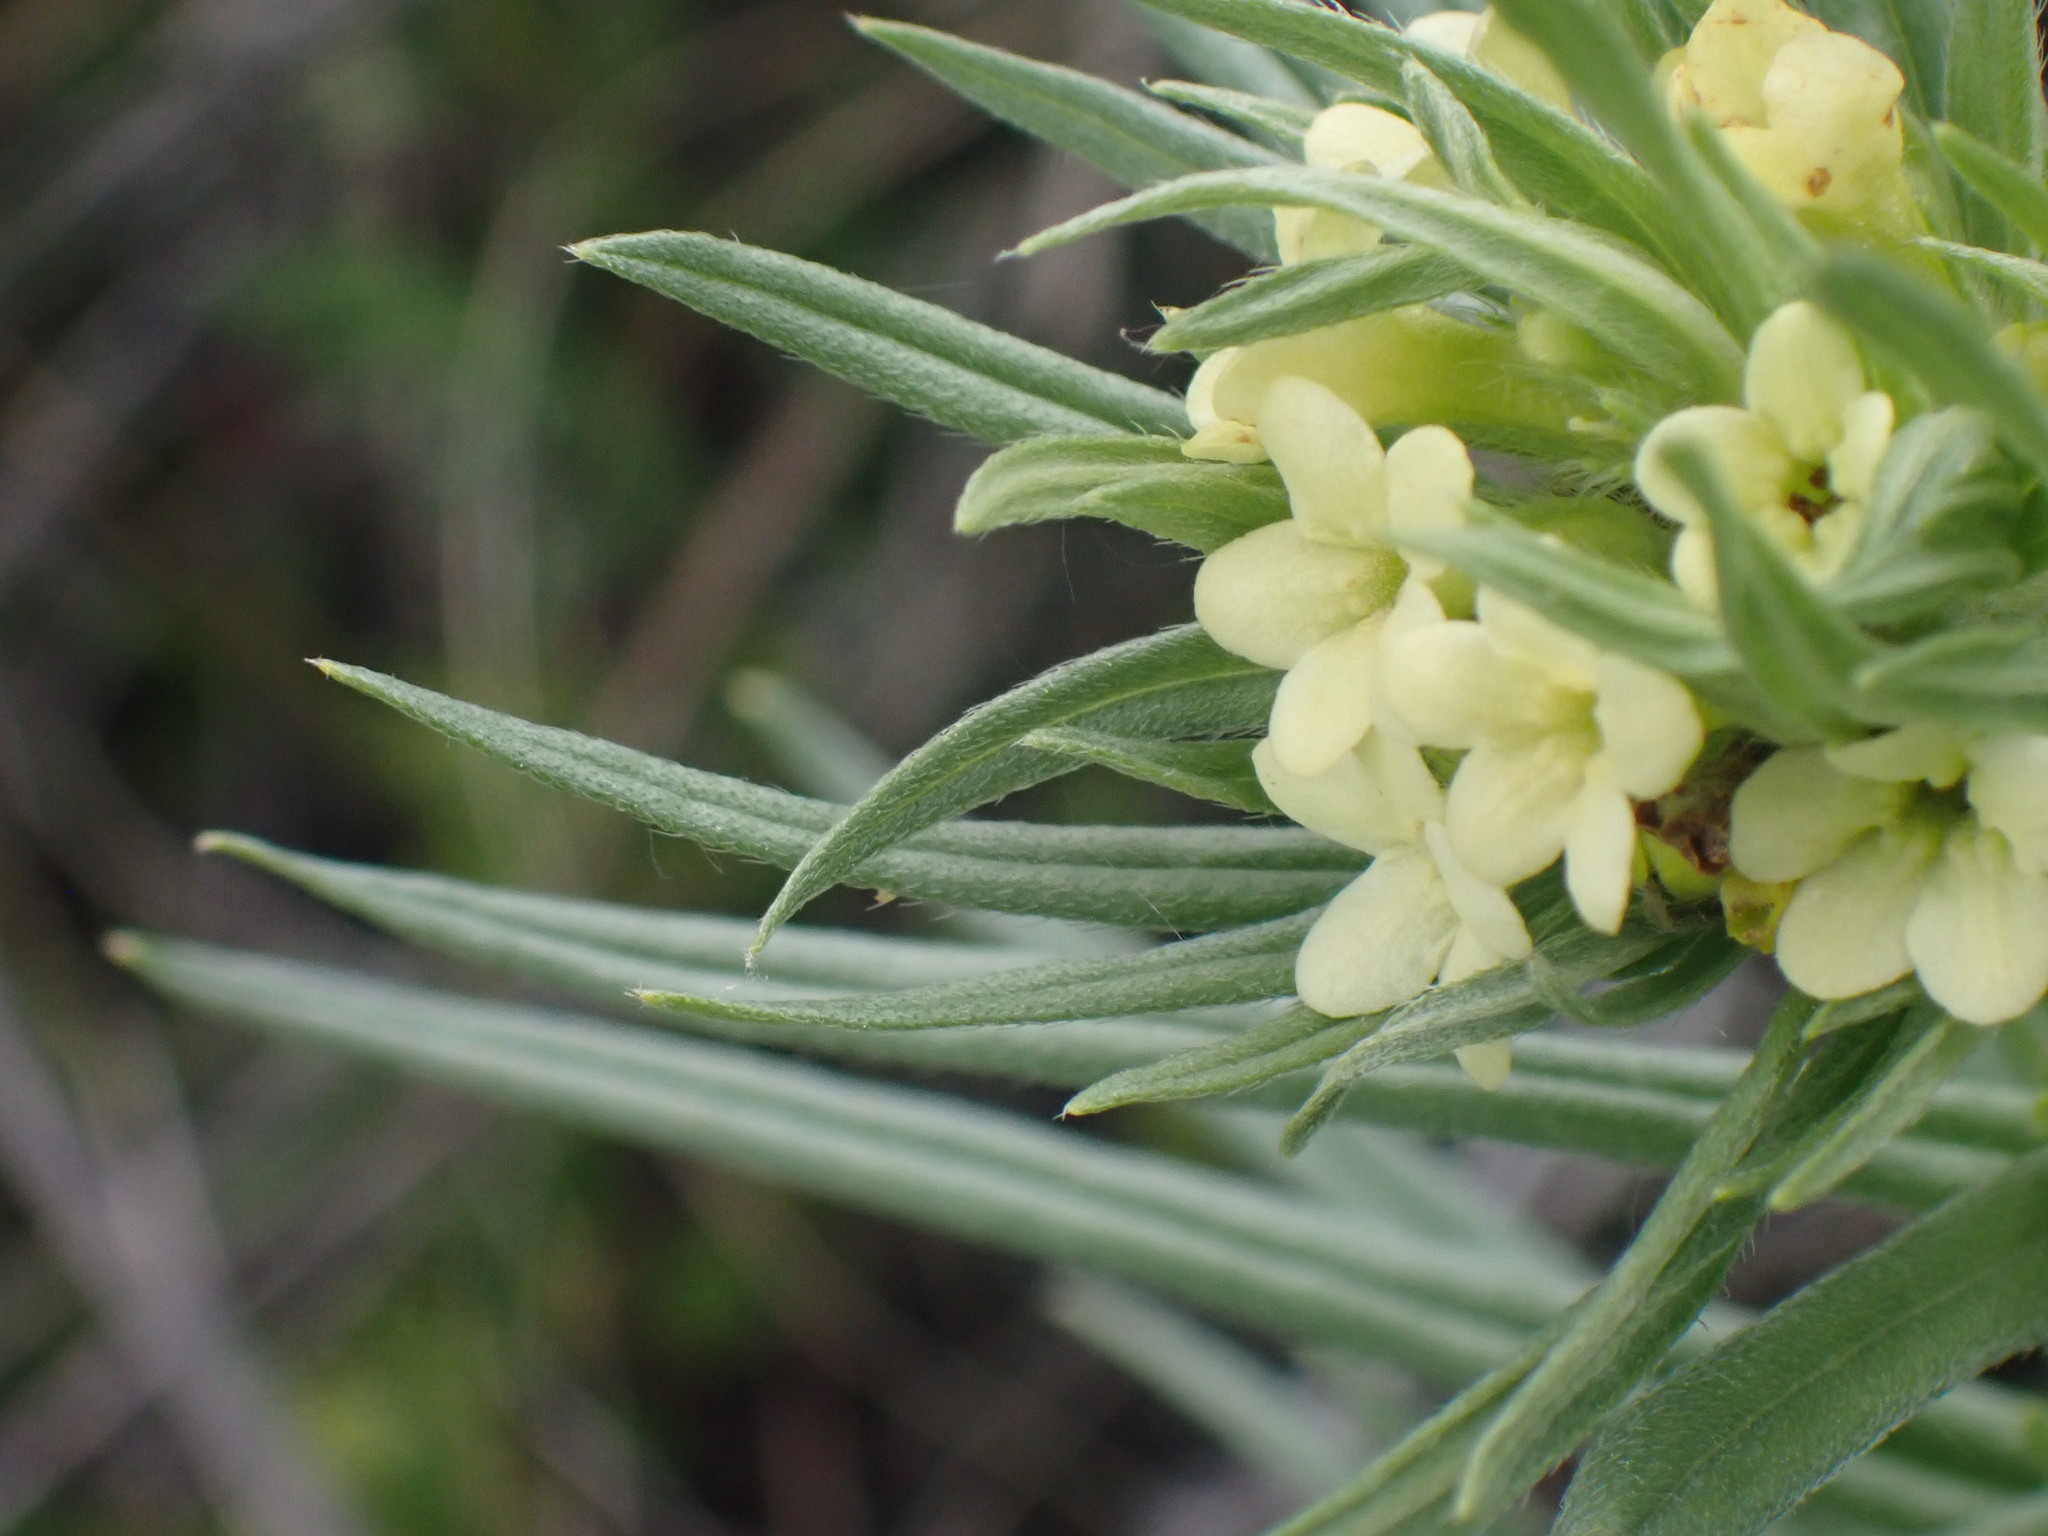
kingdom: Plantae
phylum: Tracheophyta
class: Magnoliopsida
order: Boraginales
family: Boraginaceae
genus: Lithospermum
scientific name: Lithospermum ruderale
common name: Western gromwell
